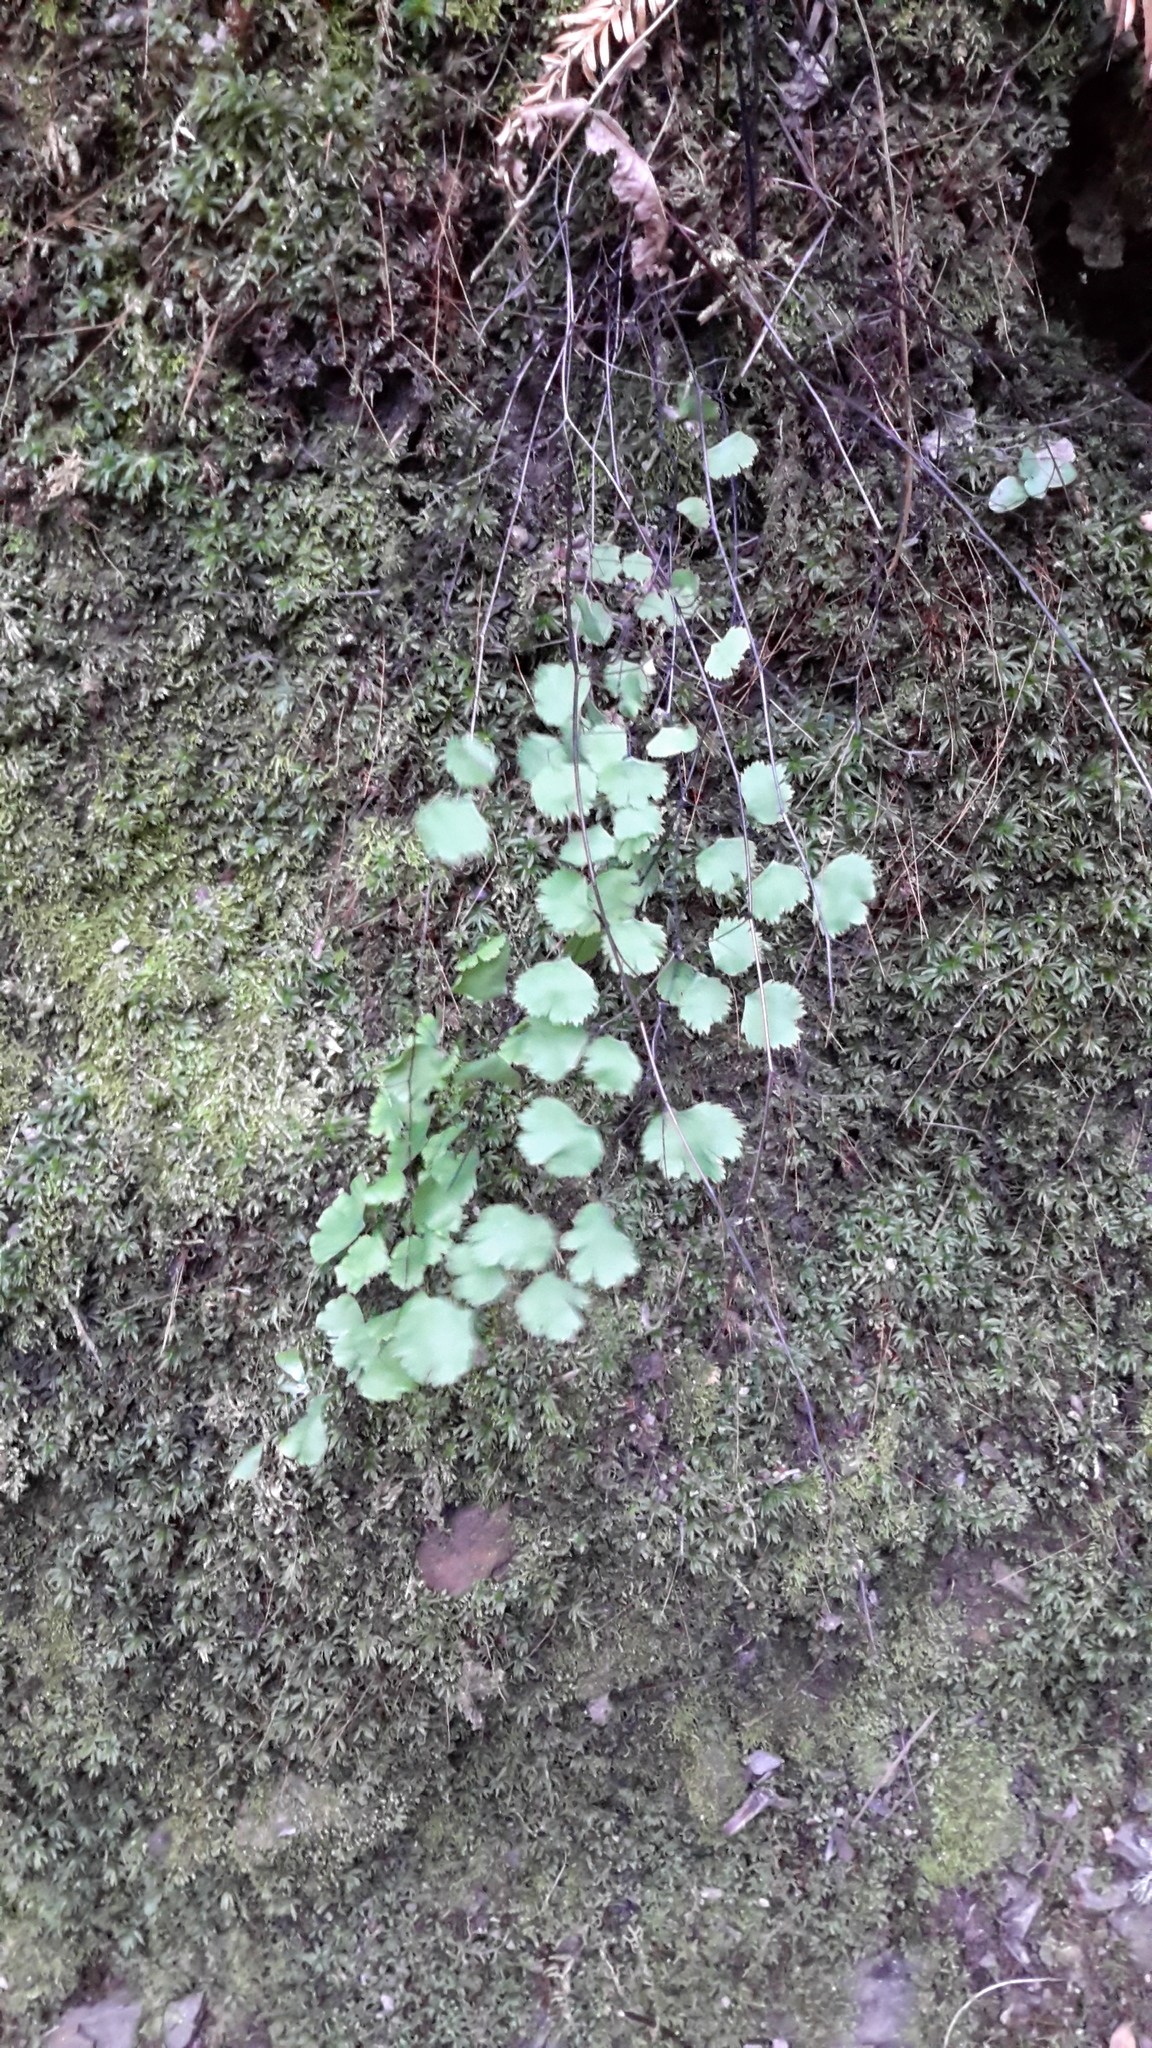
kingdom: Plantae
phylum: Tracheophyta
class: Polypodiopsida
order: Polypodiales
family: Pteridaceae
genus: Adiantum
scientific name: Adiantum jordanii
